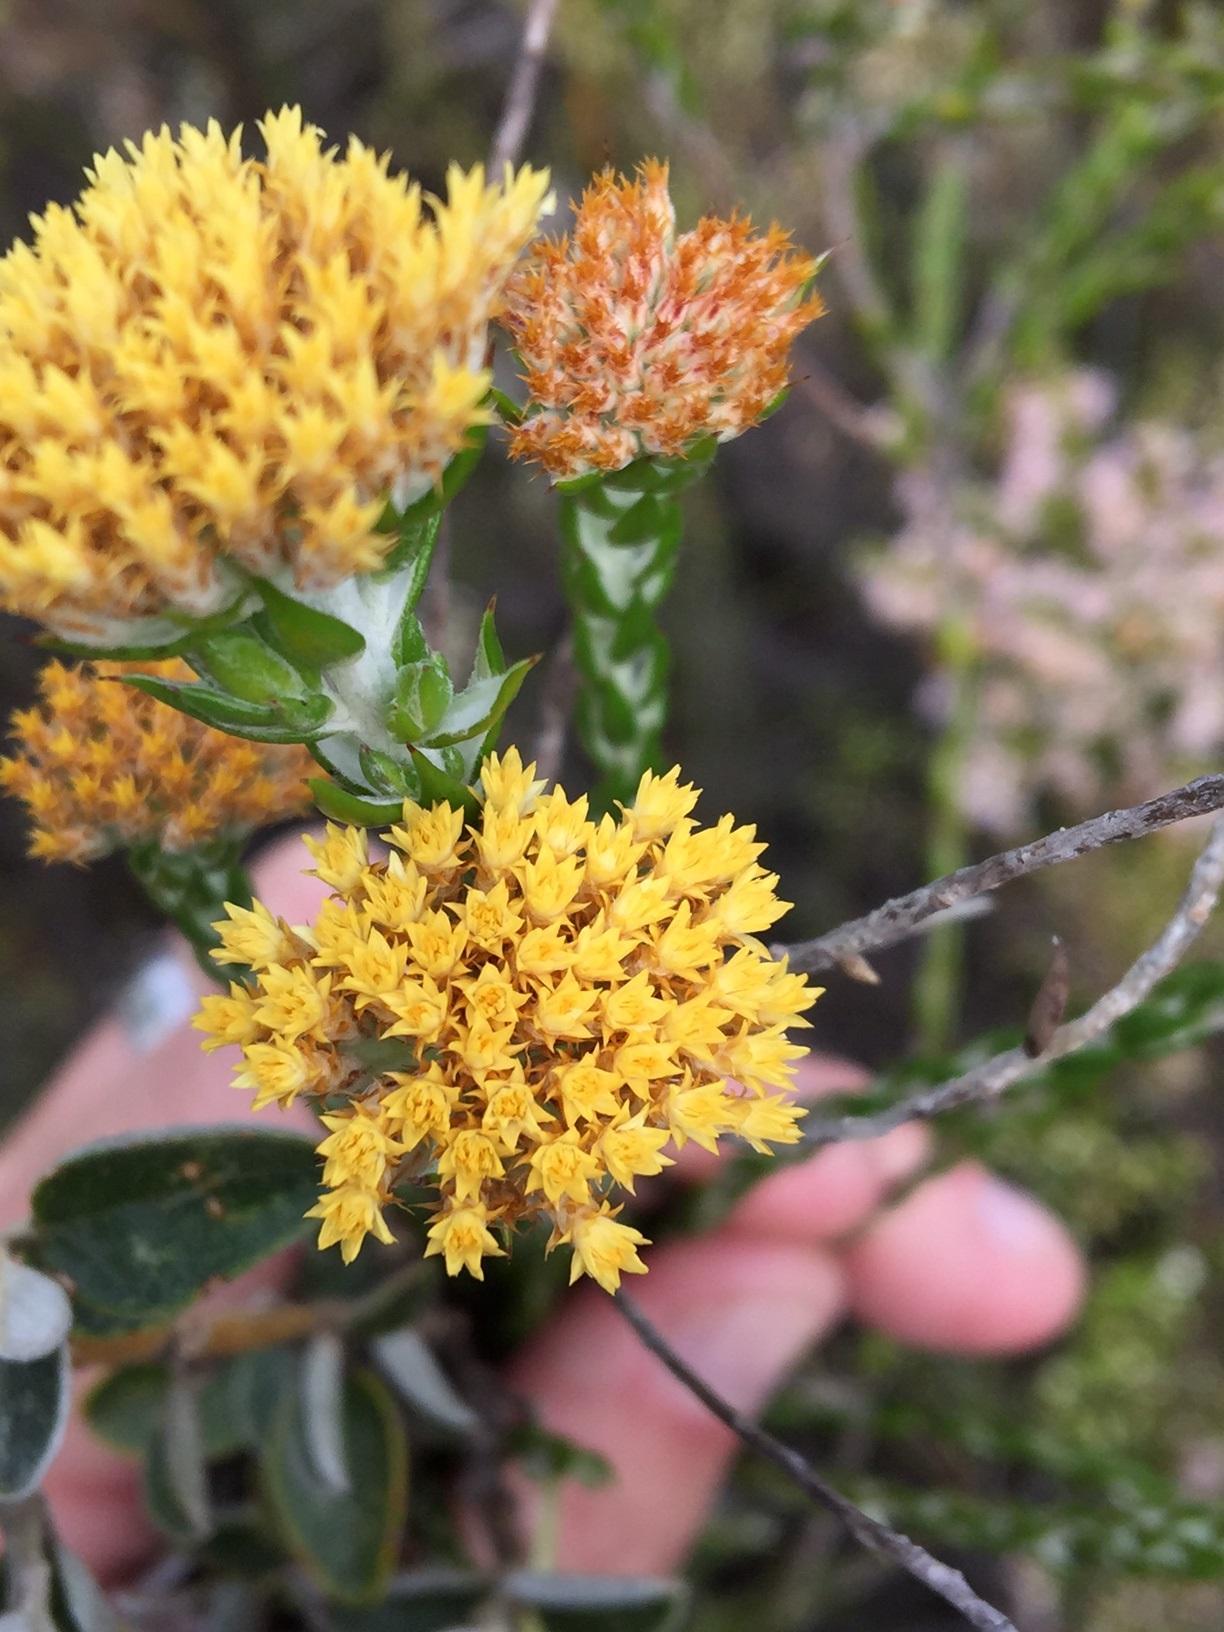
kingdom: Plantae
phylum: Tracheophyta
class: Magnoliopsida
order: Asterales
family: Asteraceae
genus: Metalasia
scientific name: Metalasia pulcherrima
